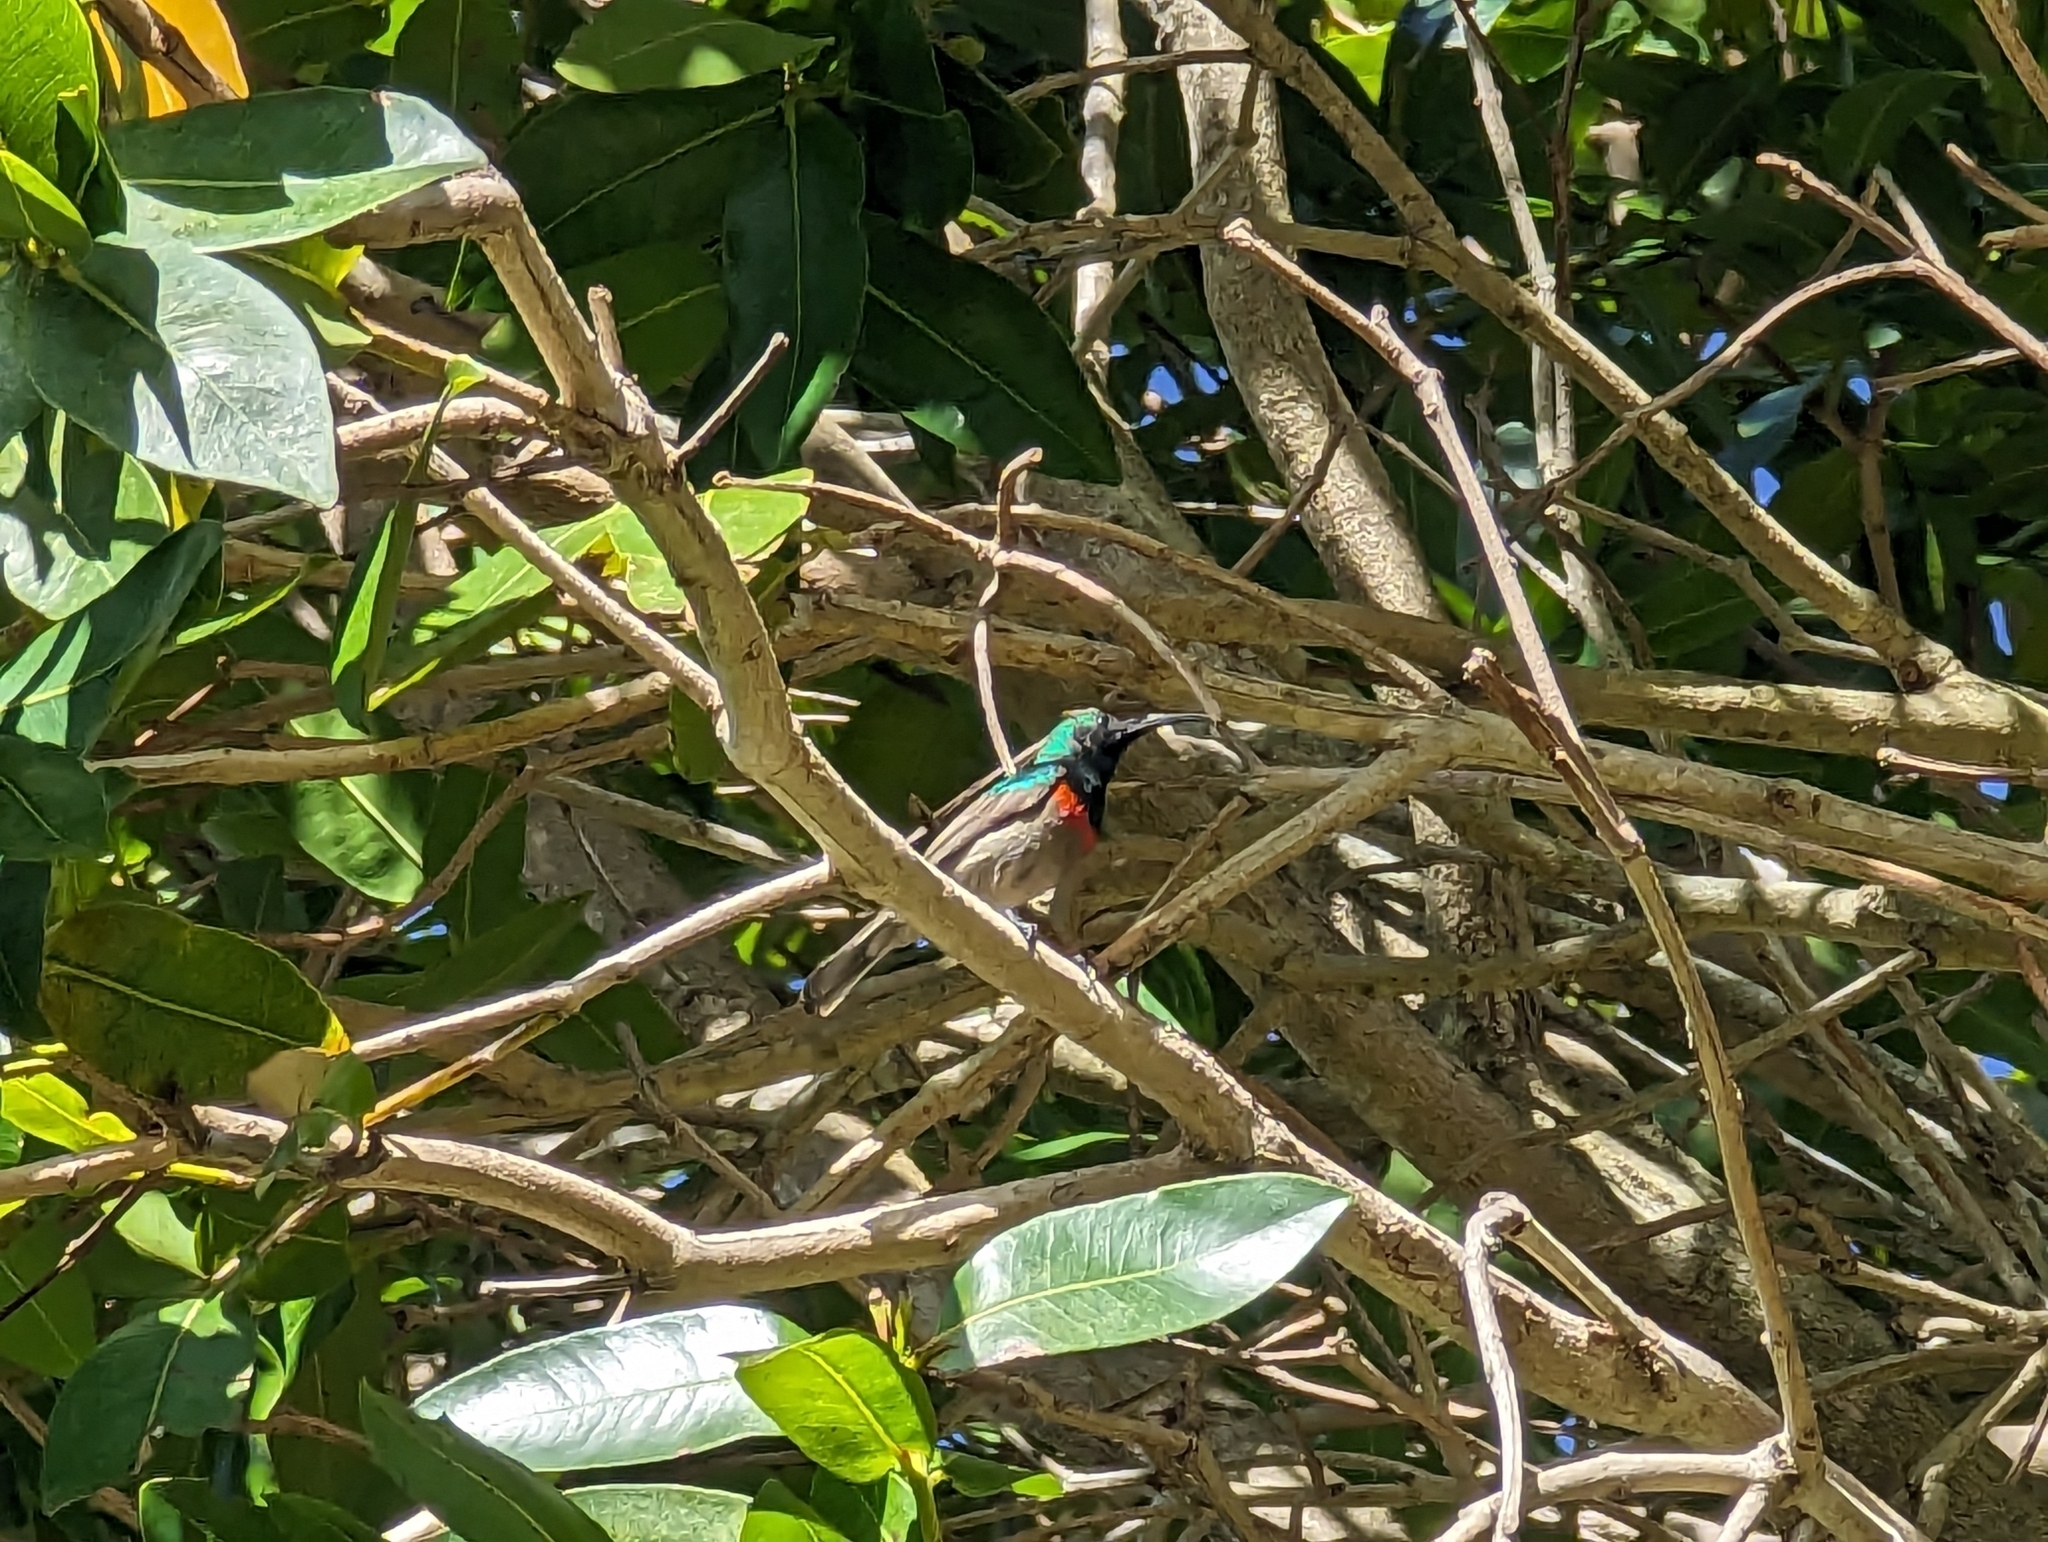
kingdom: Animalia
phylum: Chordata
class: Aves
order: Passeriformes
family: Nectariniidae
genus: Cinnyris
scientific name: Cinnyris chalybeus
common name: Southern double-collared sunbird
